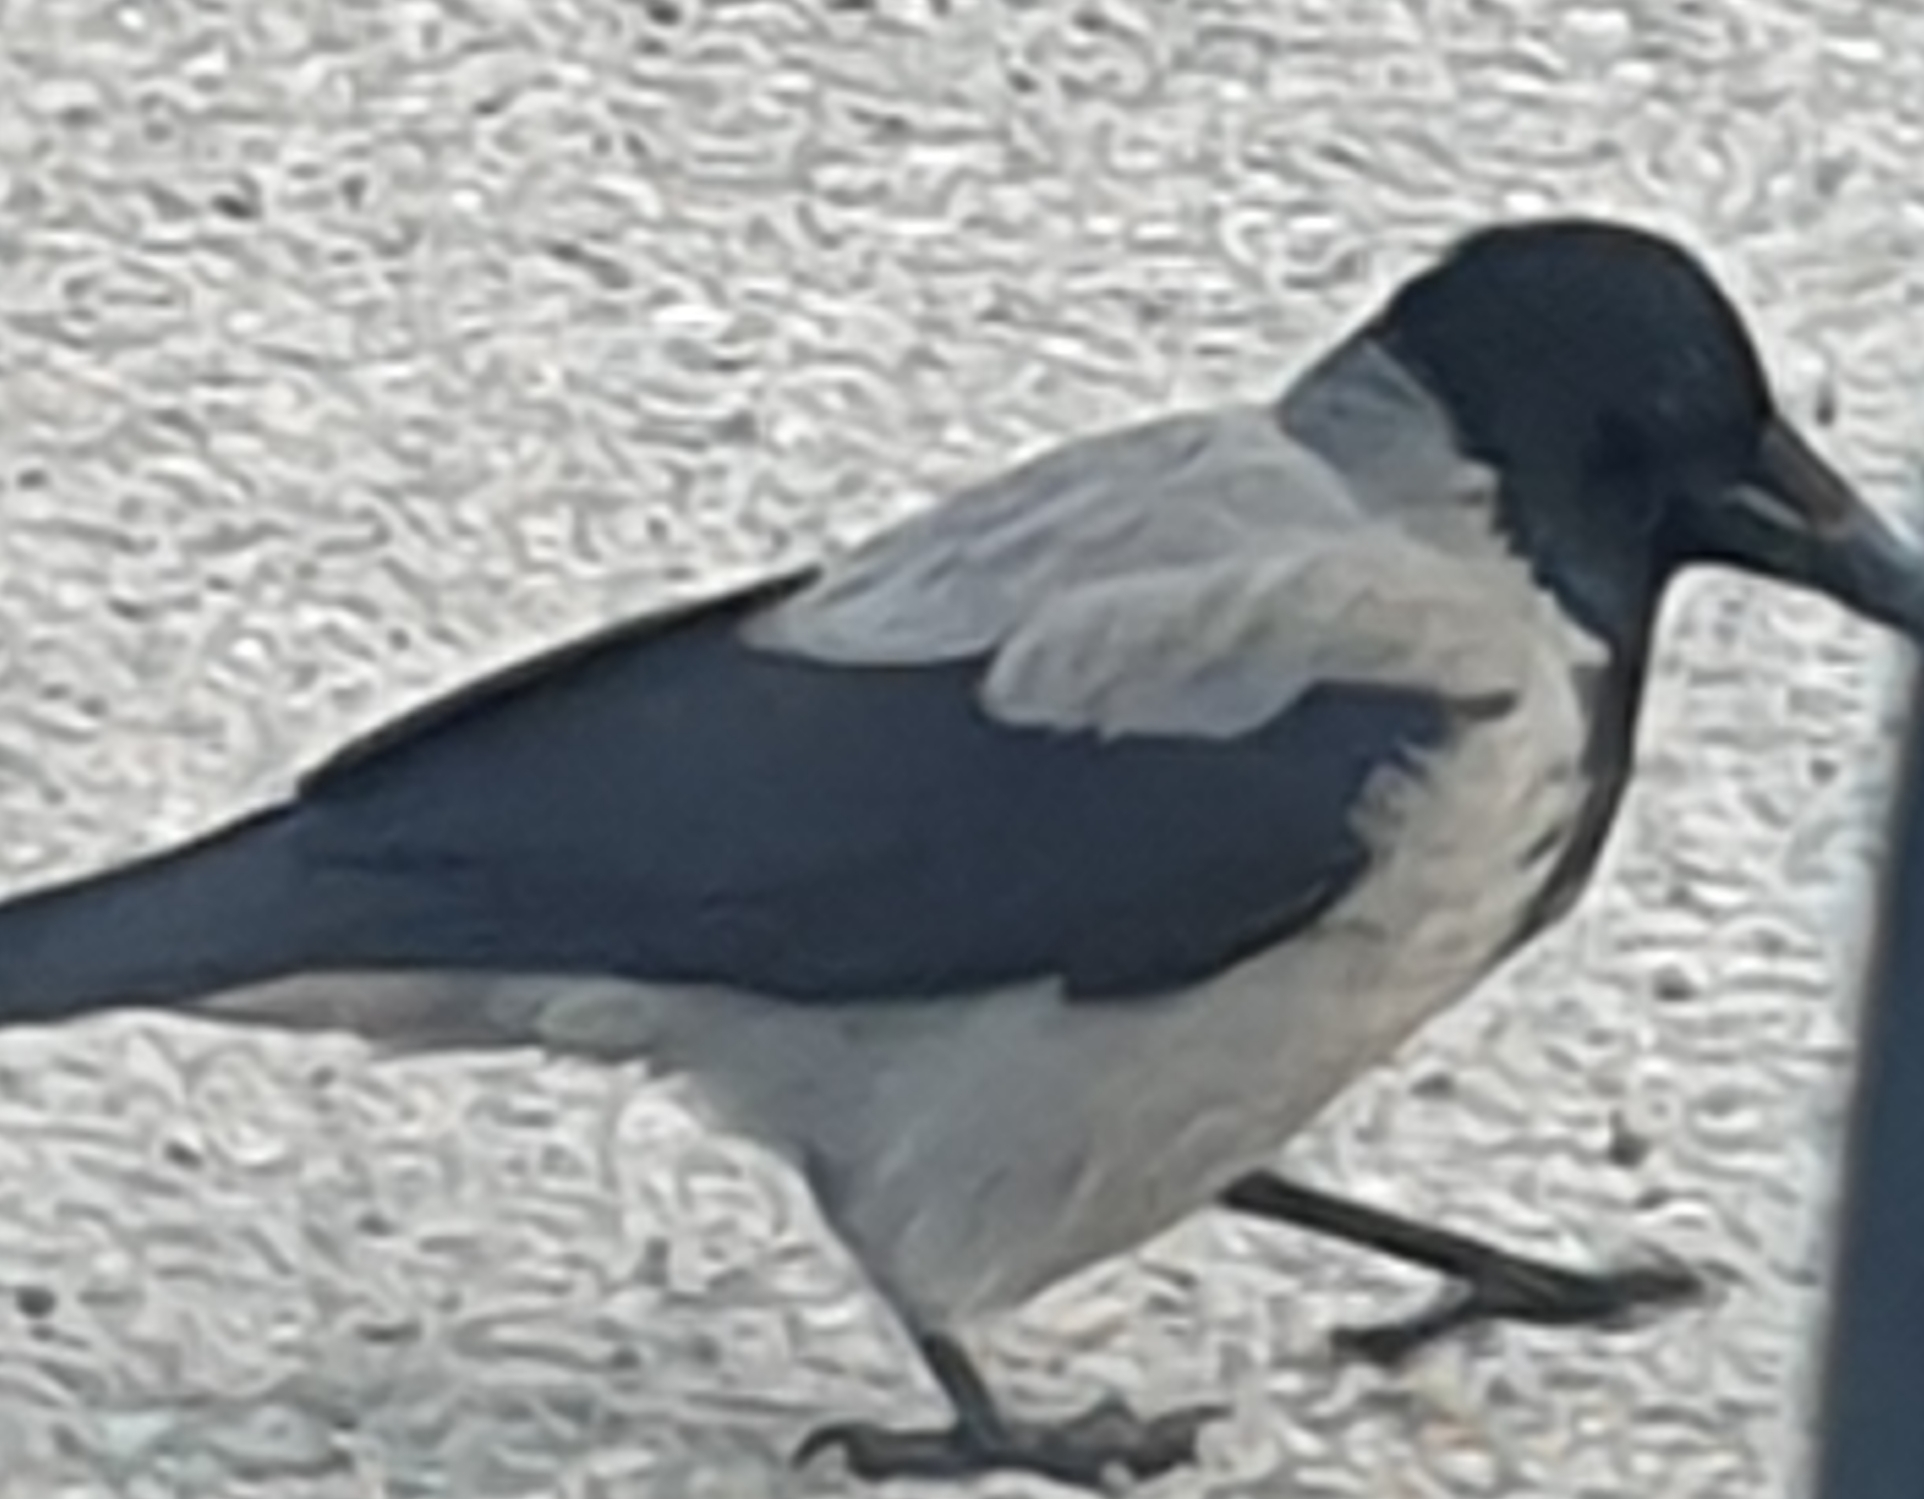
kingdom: Animalia
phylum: Chordata
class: Aves
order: Passeriformes
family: Corvidae
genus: Corvus
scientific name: Corvus cornix
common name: Hooded crow
